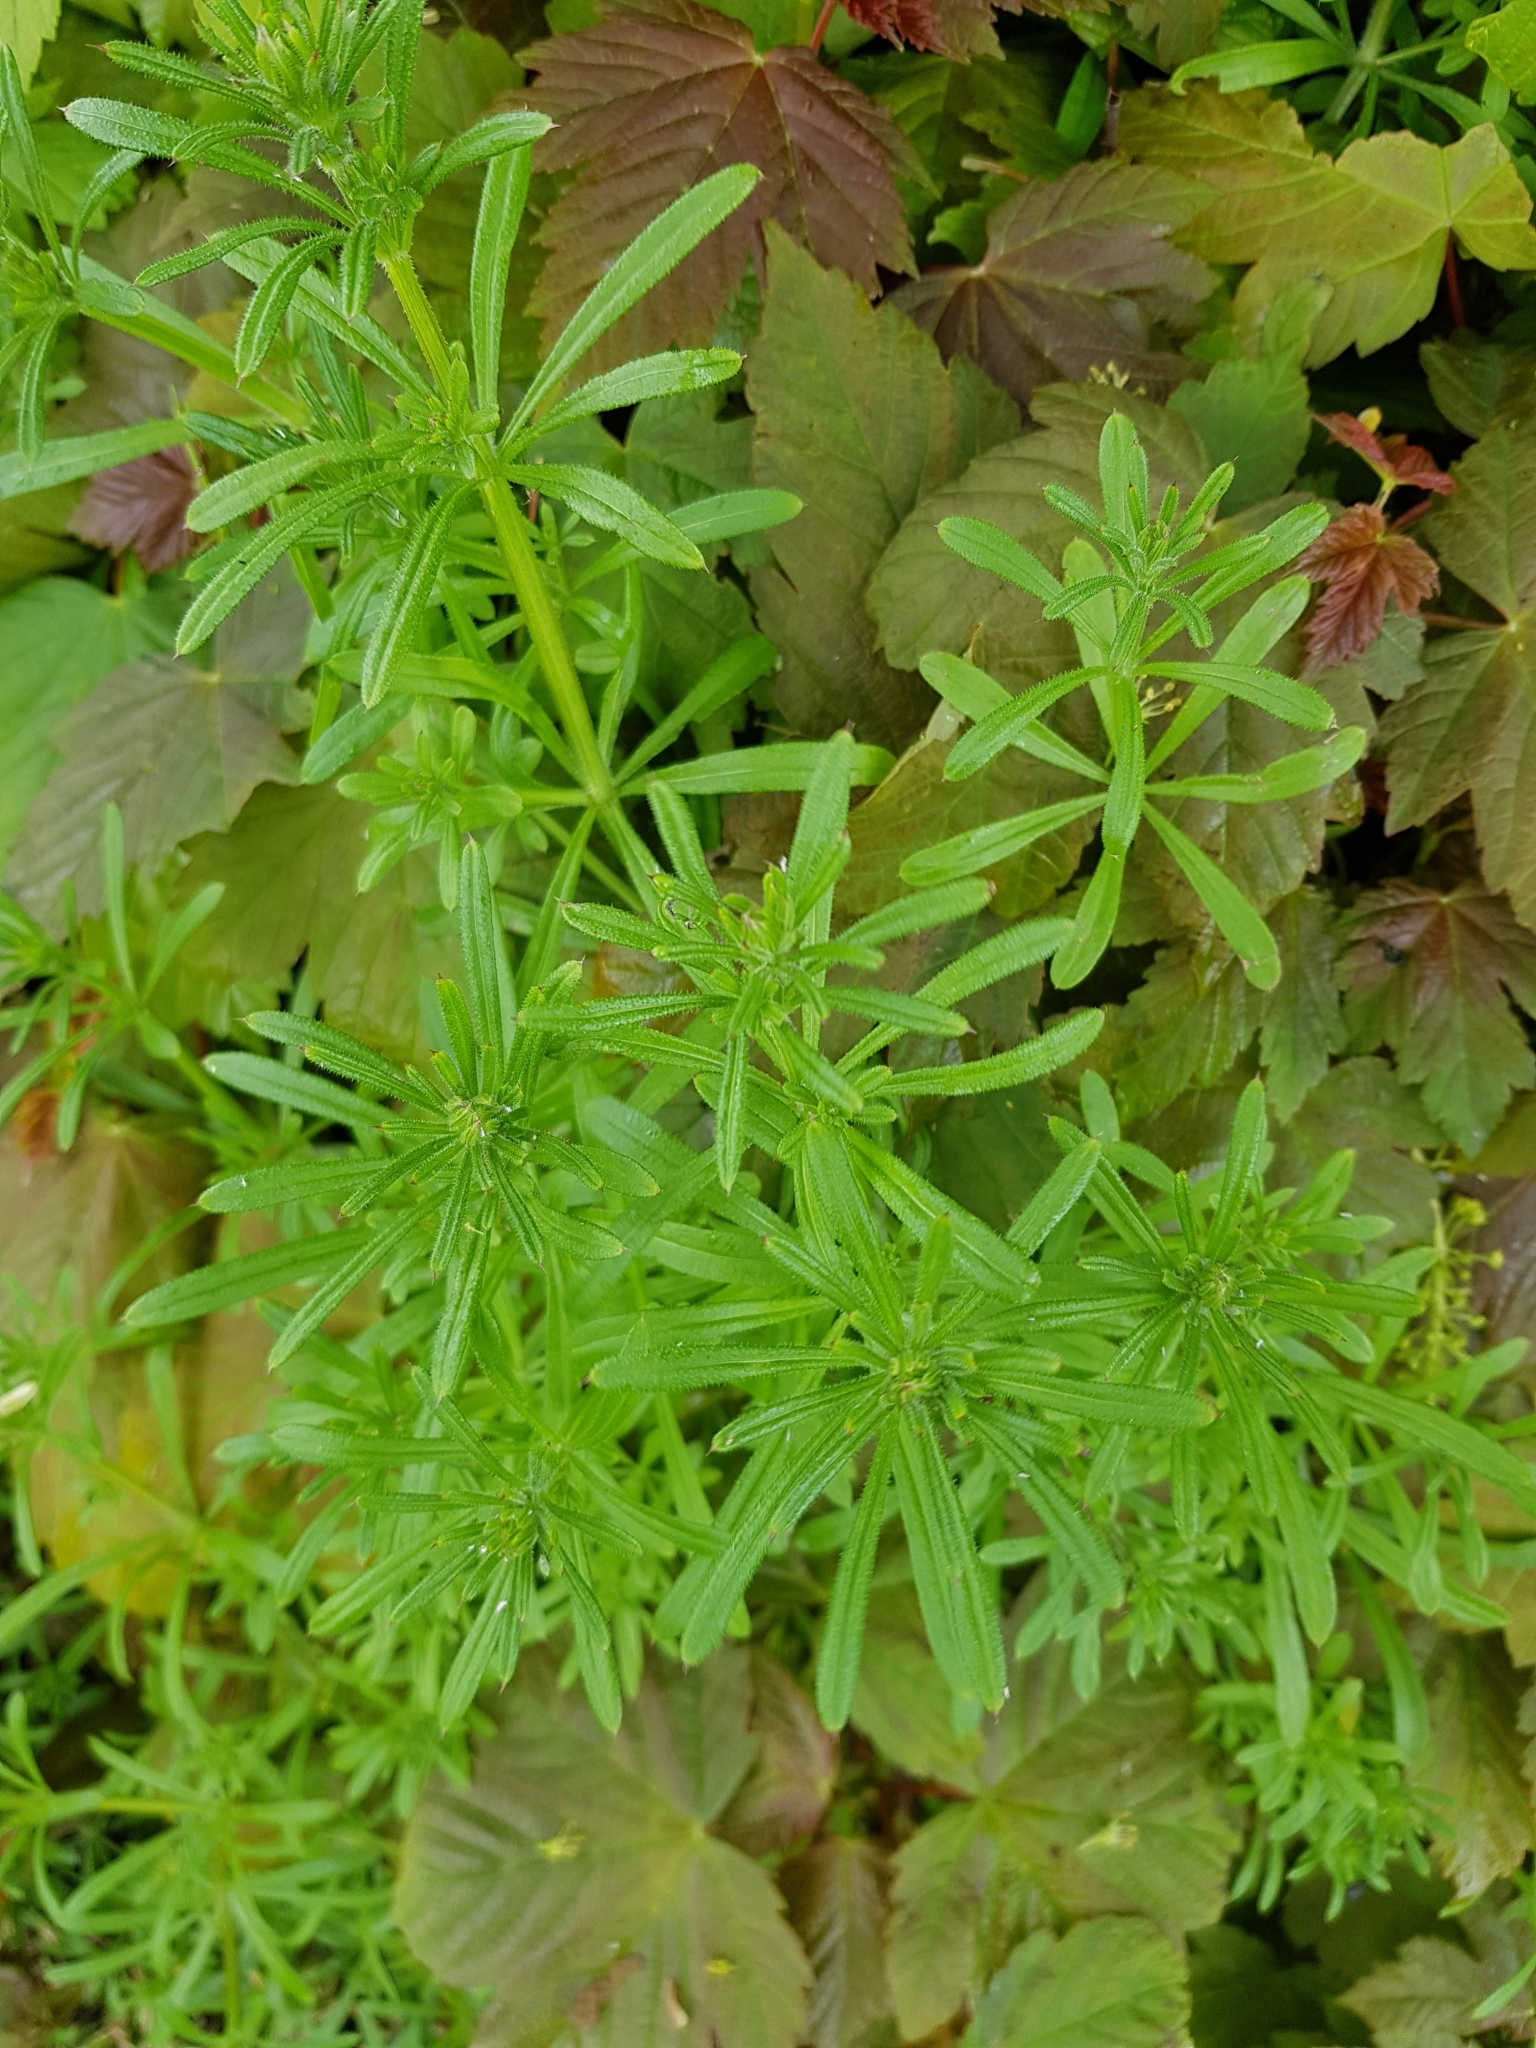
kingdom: Plantae
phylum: Tracheophyta
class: Magnoliopsida
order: Gentianales
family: Rubiaceae
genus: Galium
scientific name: Galium aparine
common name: Cleavers
